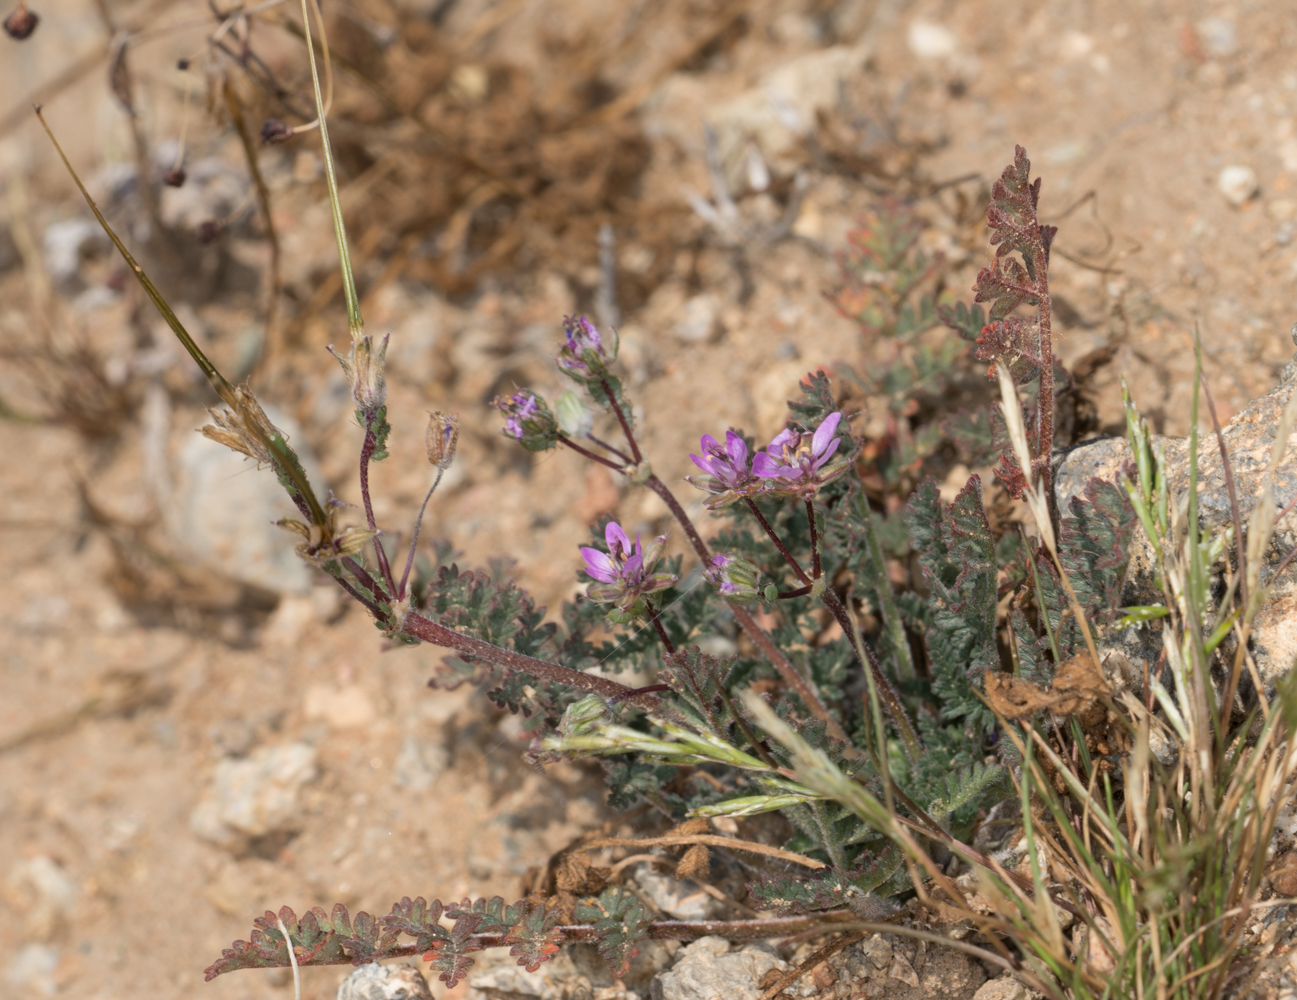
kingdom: Plantae
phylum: Tracheophyta
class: Magnoliopsida
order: Geraniales
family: Geraniaceae
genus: Erodium
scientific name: Erodium cicutarium
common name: Common stork's-bill
